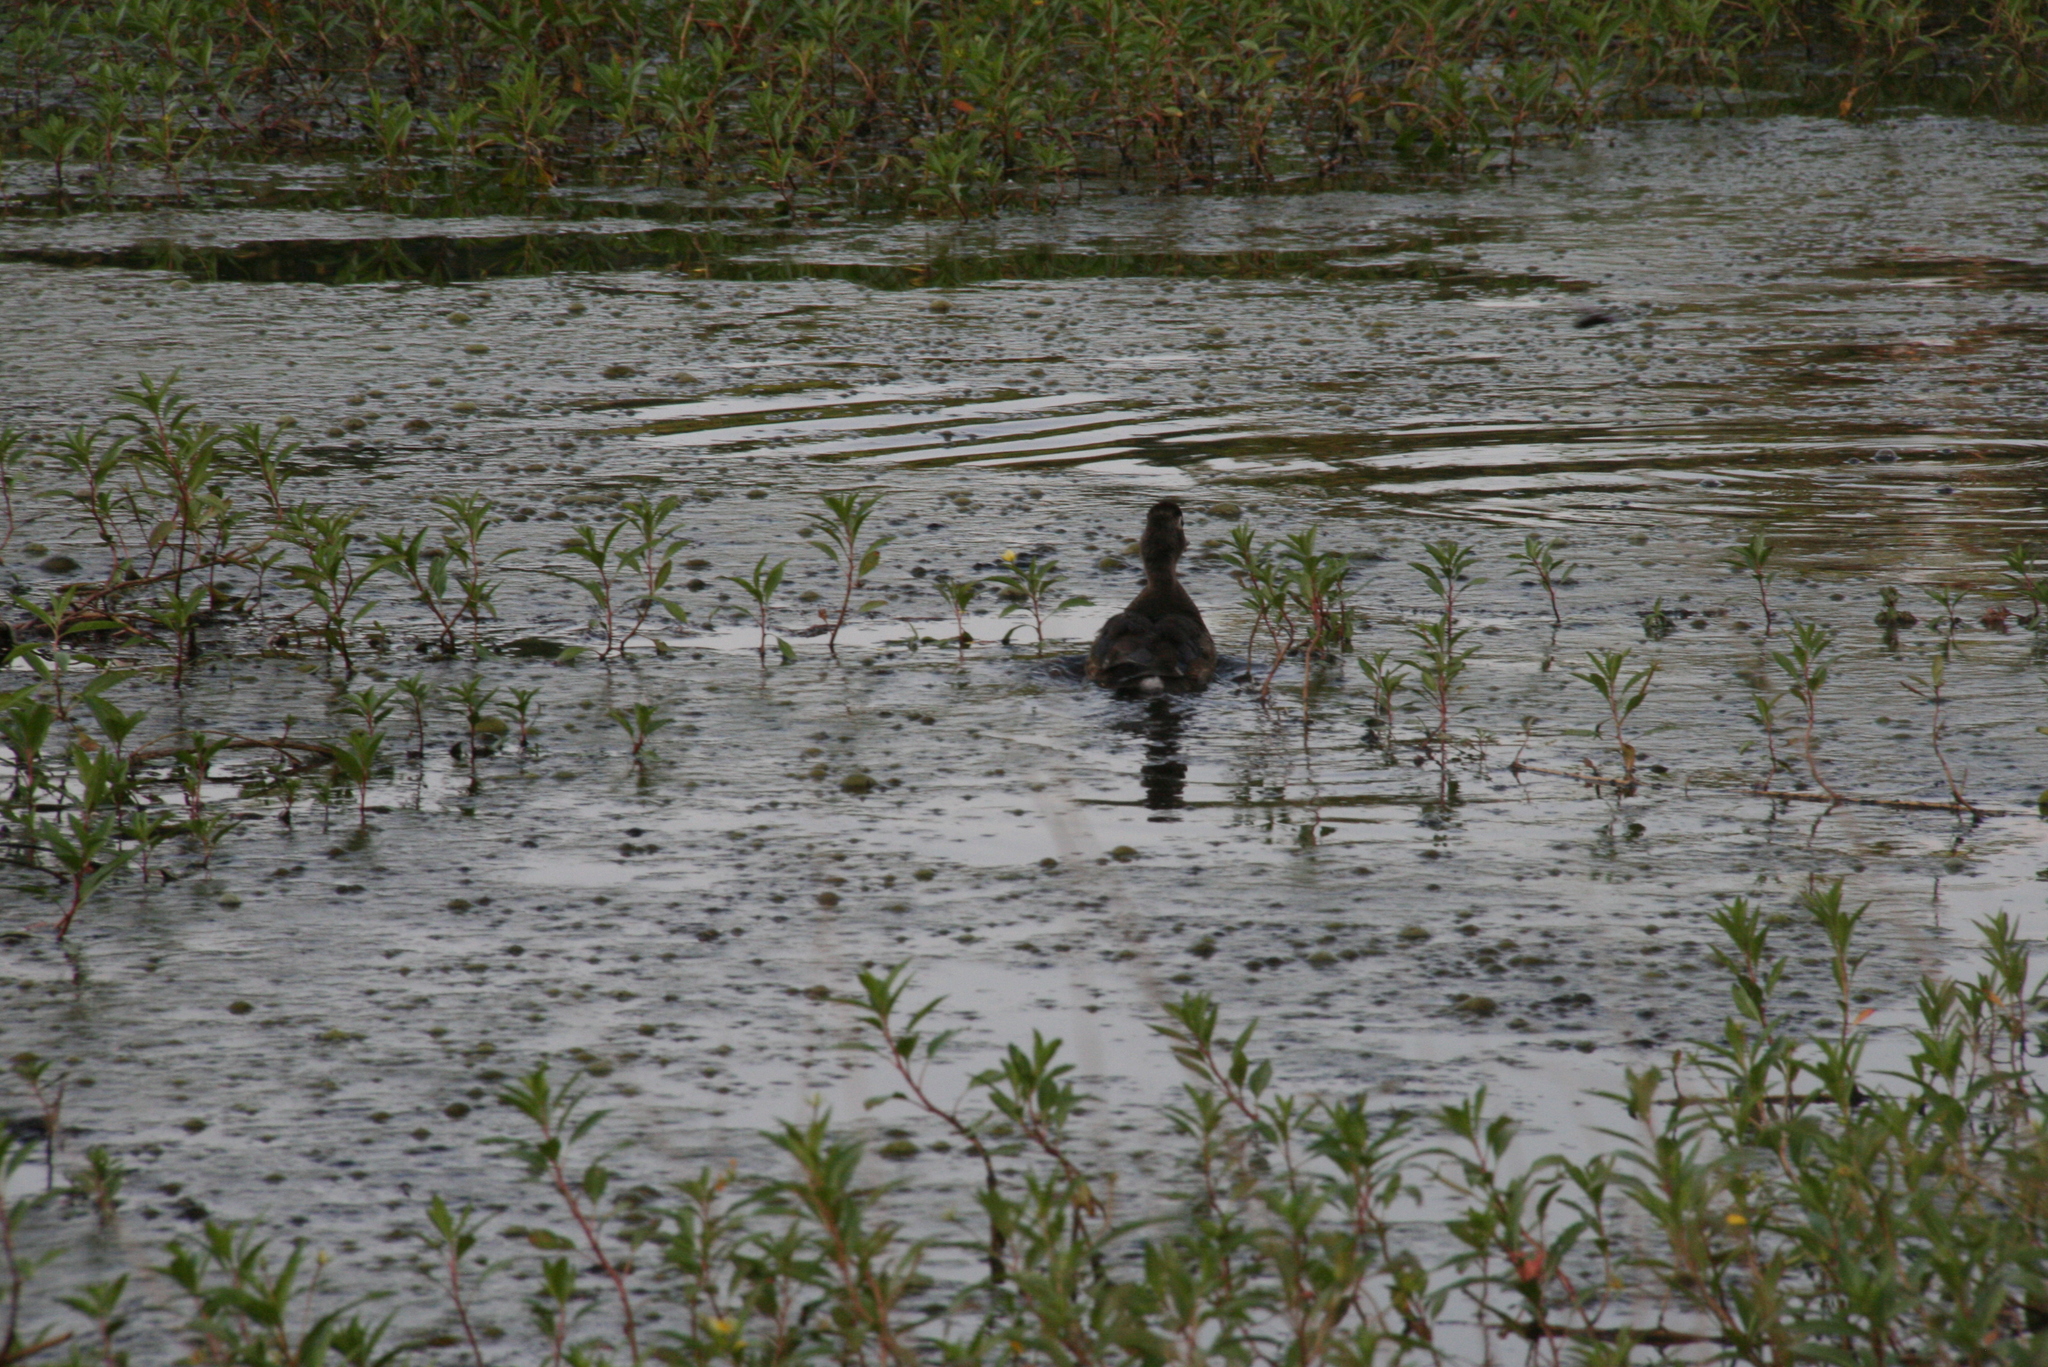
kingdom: Animalia
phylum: Chordata
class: Aves
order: Anseriformes
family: Anatidae
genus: Aix
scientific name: Aix sponsa
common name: Wood duck
